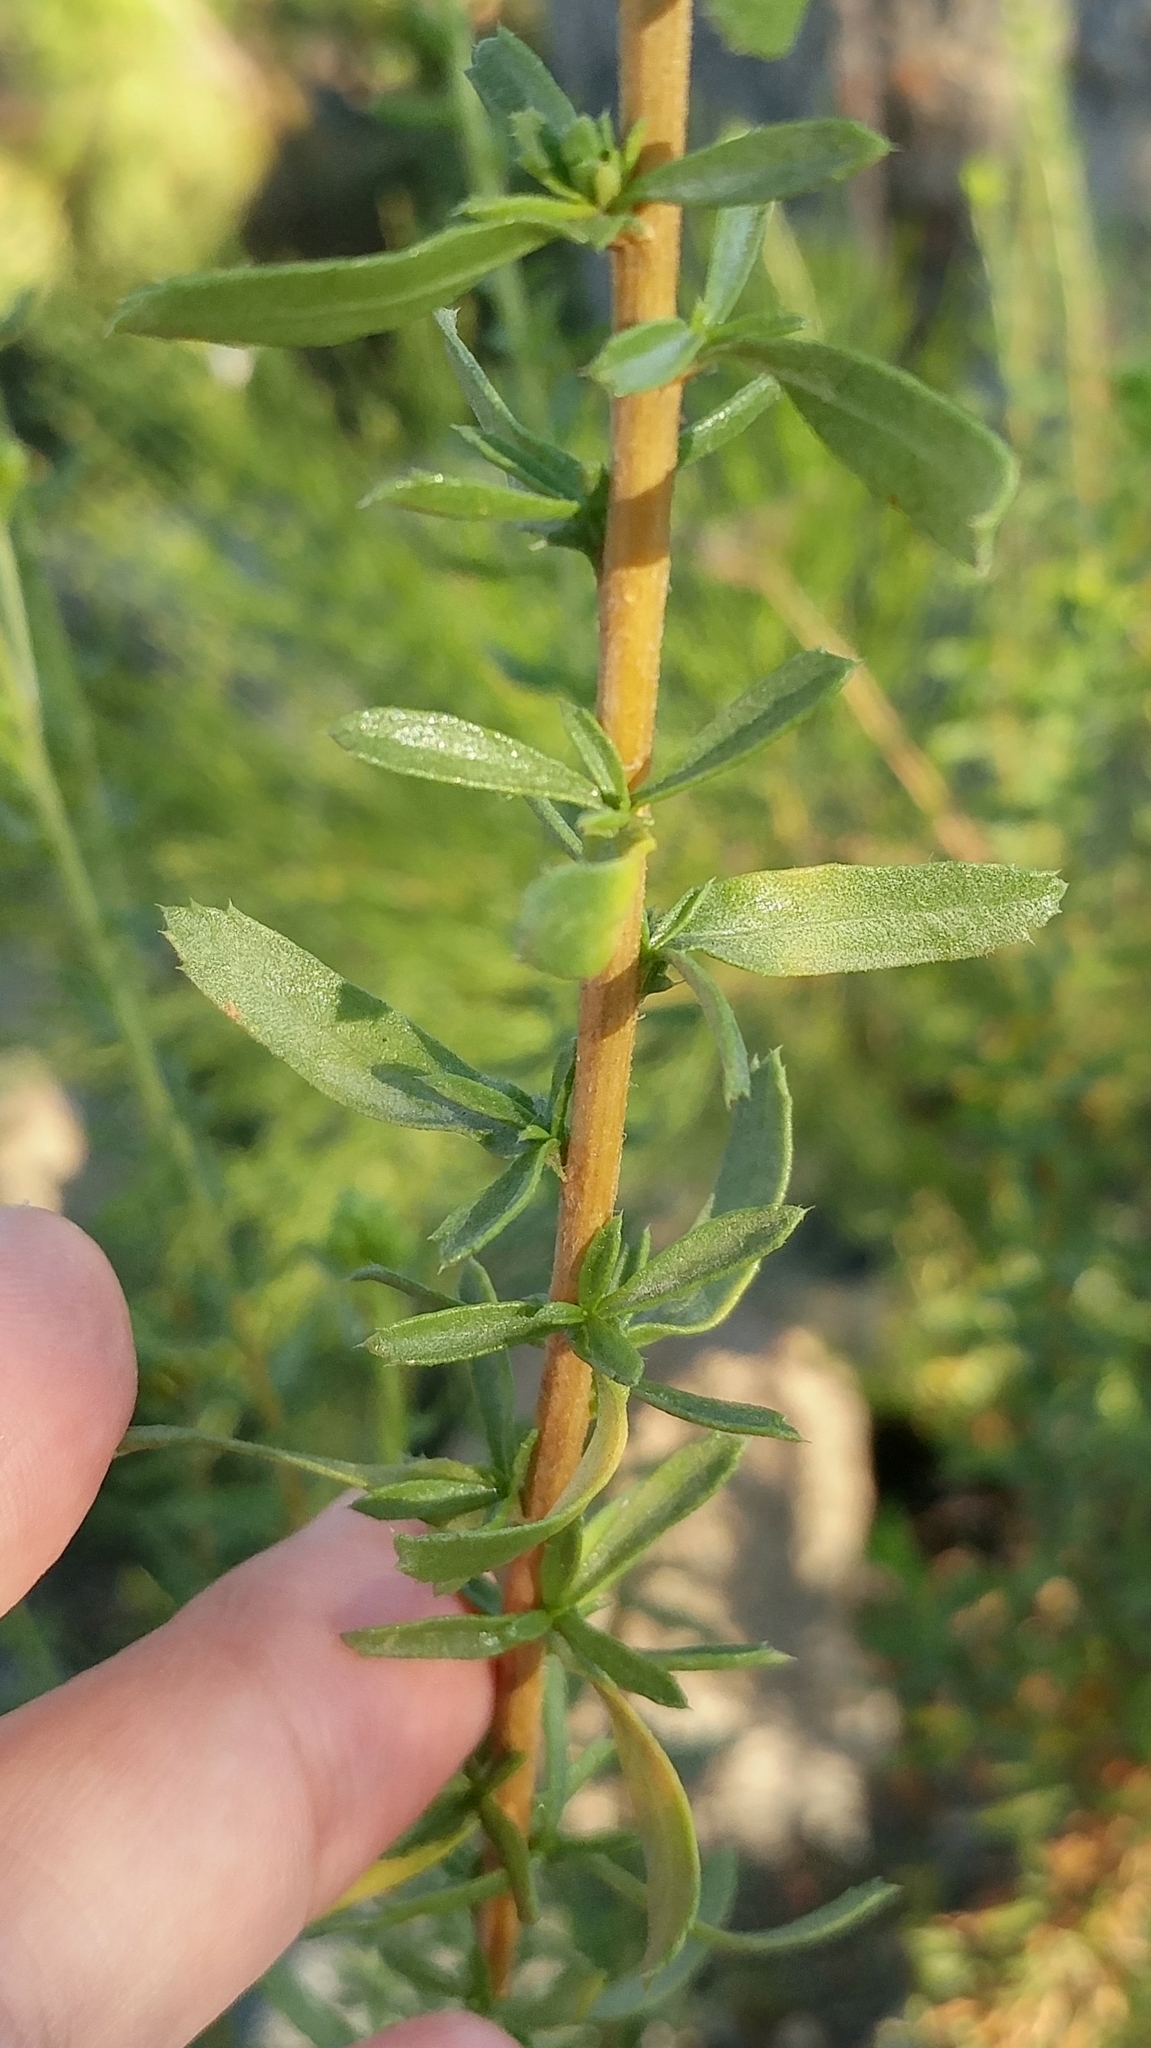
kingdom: Plantae
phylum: Tracheophyta
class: Magnoliopsida
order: Asterales
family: Asteraceae
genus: Isocoma
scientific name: Isocoma menziesii
